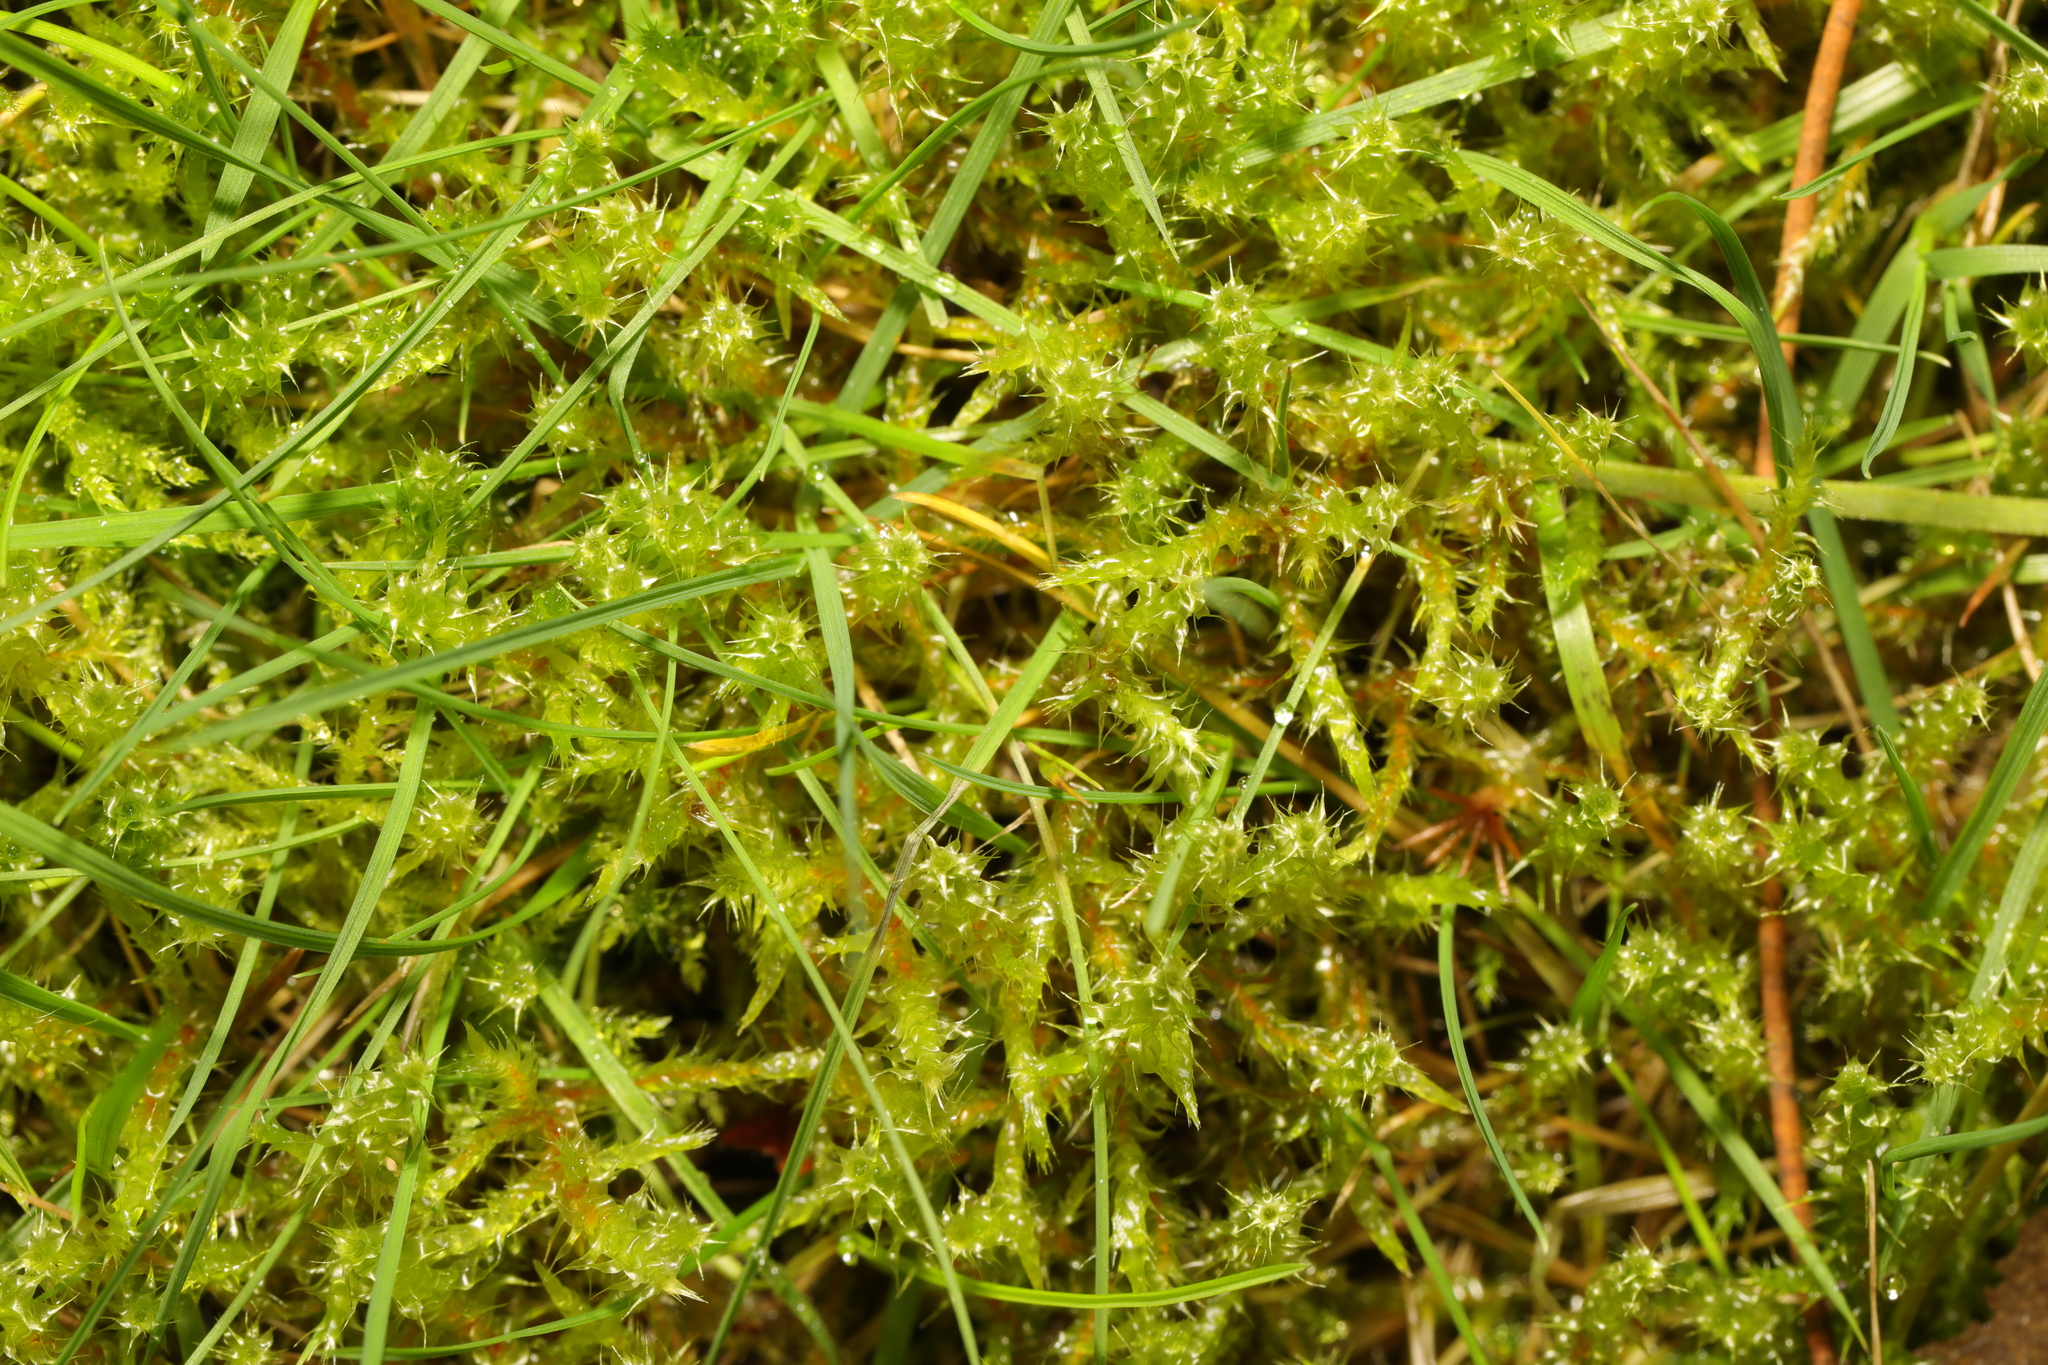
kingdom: Plantae
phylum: Bryophyta
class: Bryopsida
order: Hypnales
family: Hylocomiaceae
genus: Rhytidiadelphus
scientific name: Rhytidiadelphus squarrosus
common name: Springy turf-moss
